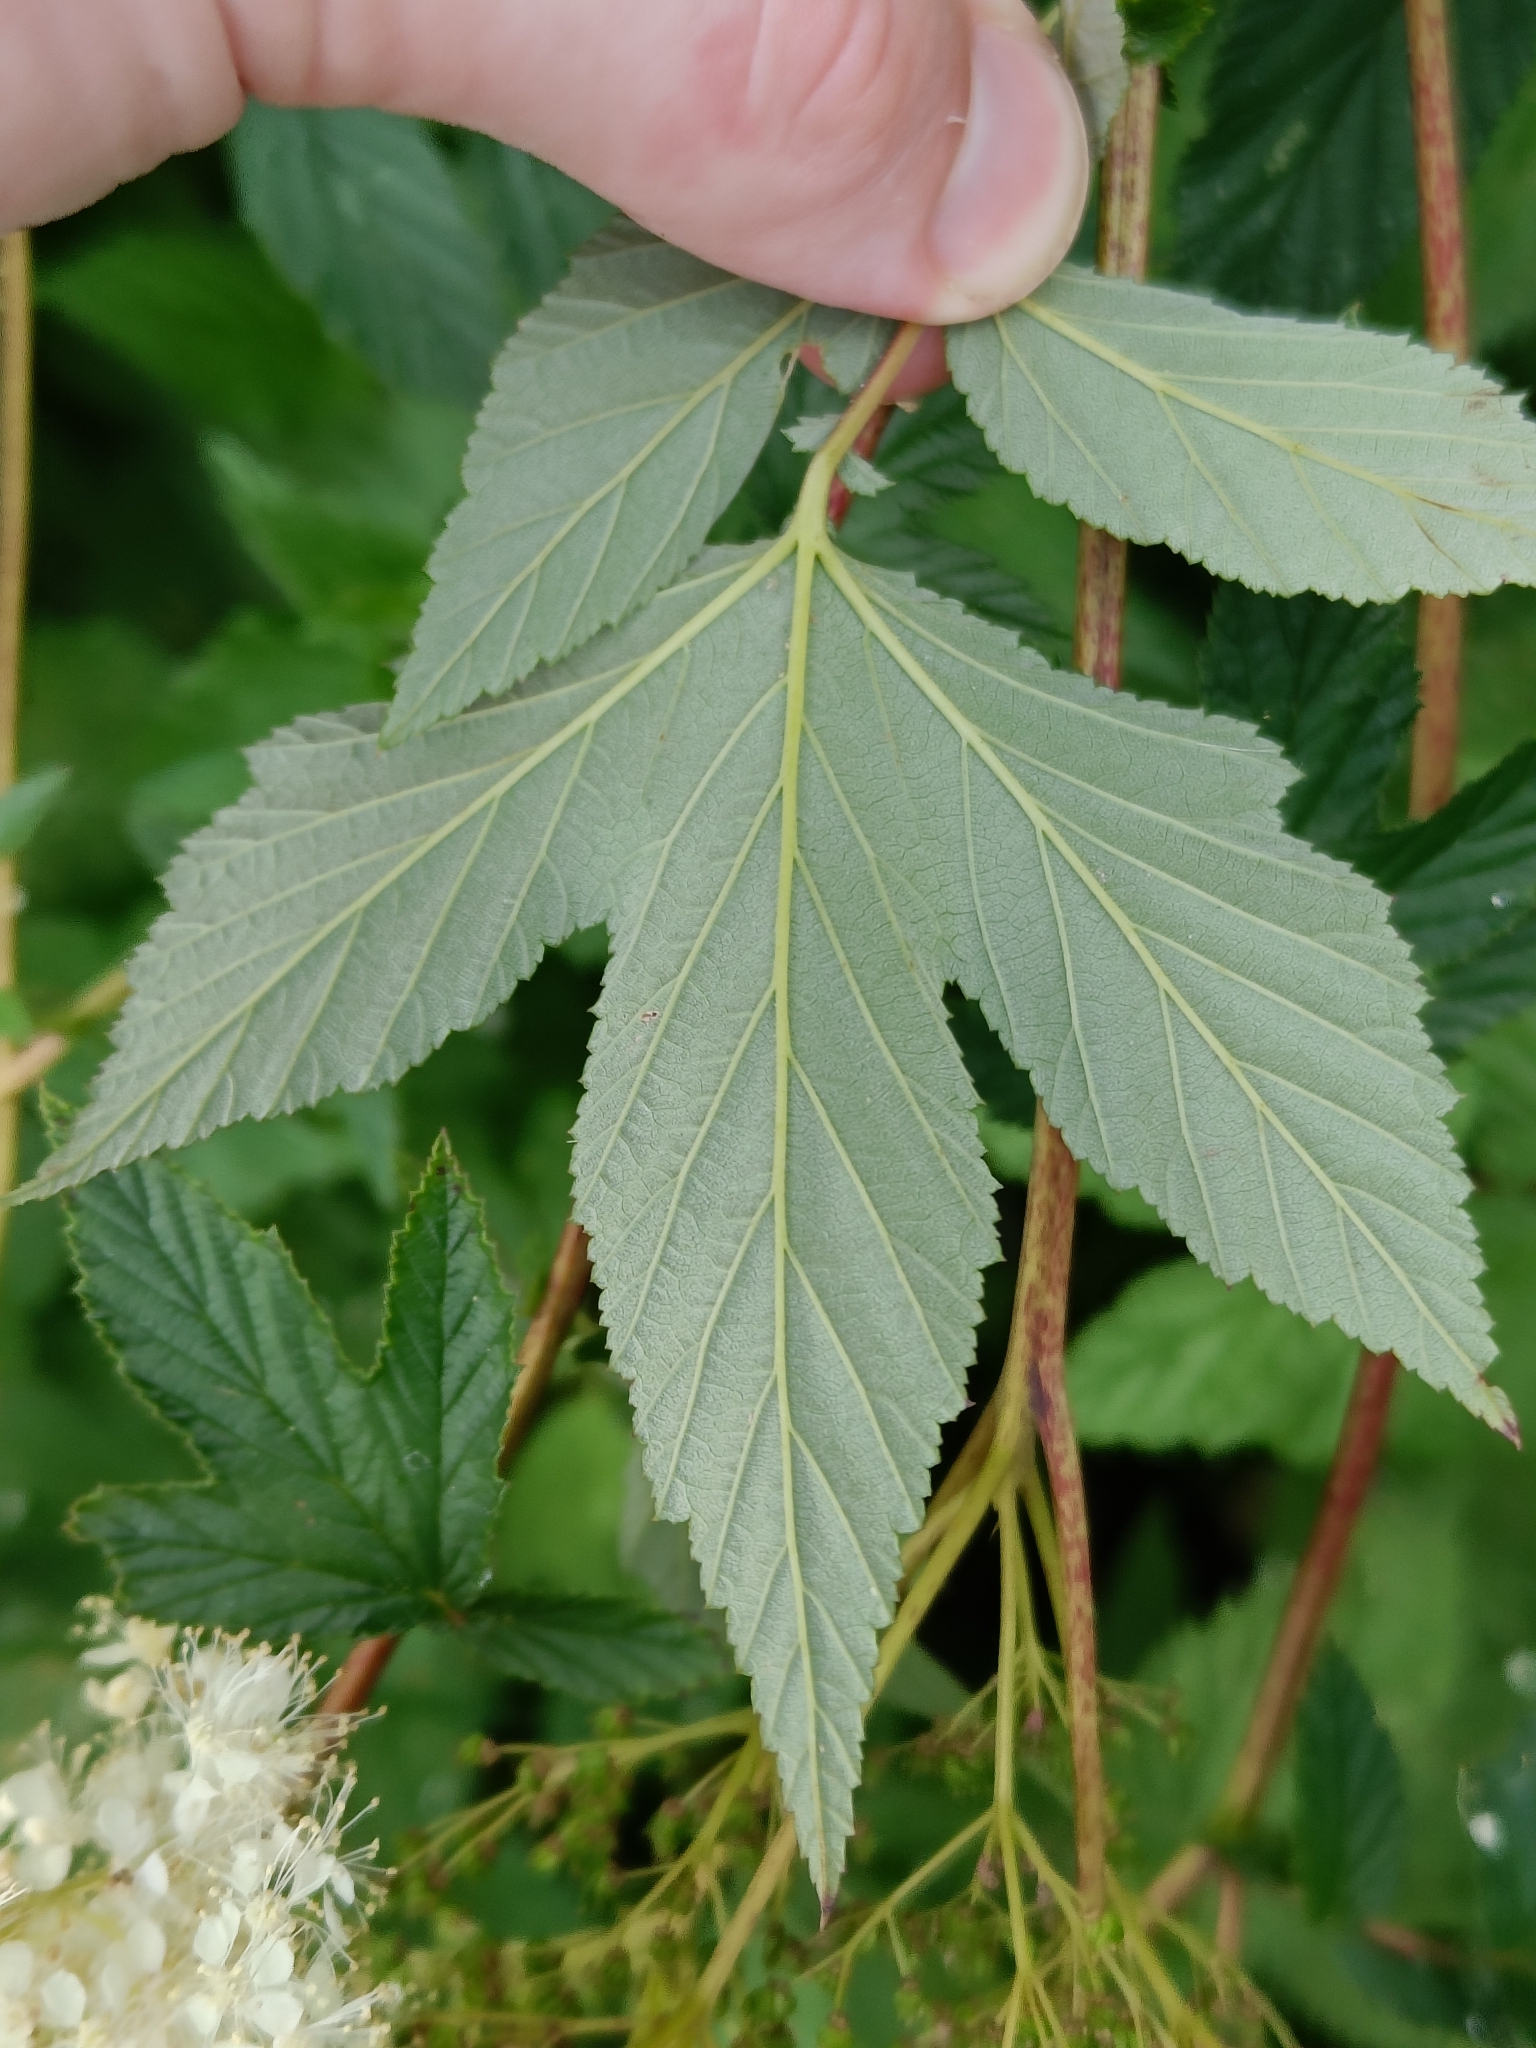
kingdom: Plantae
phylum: Tracheophyta
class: Magnoliopsida
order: Rosales
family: Rosaceae
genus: Filipendula
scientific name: Filipendula ulmaria
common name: Meadowsweet
